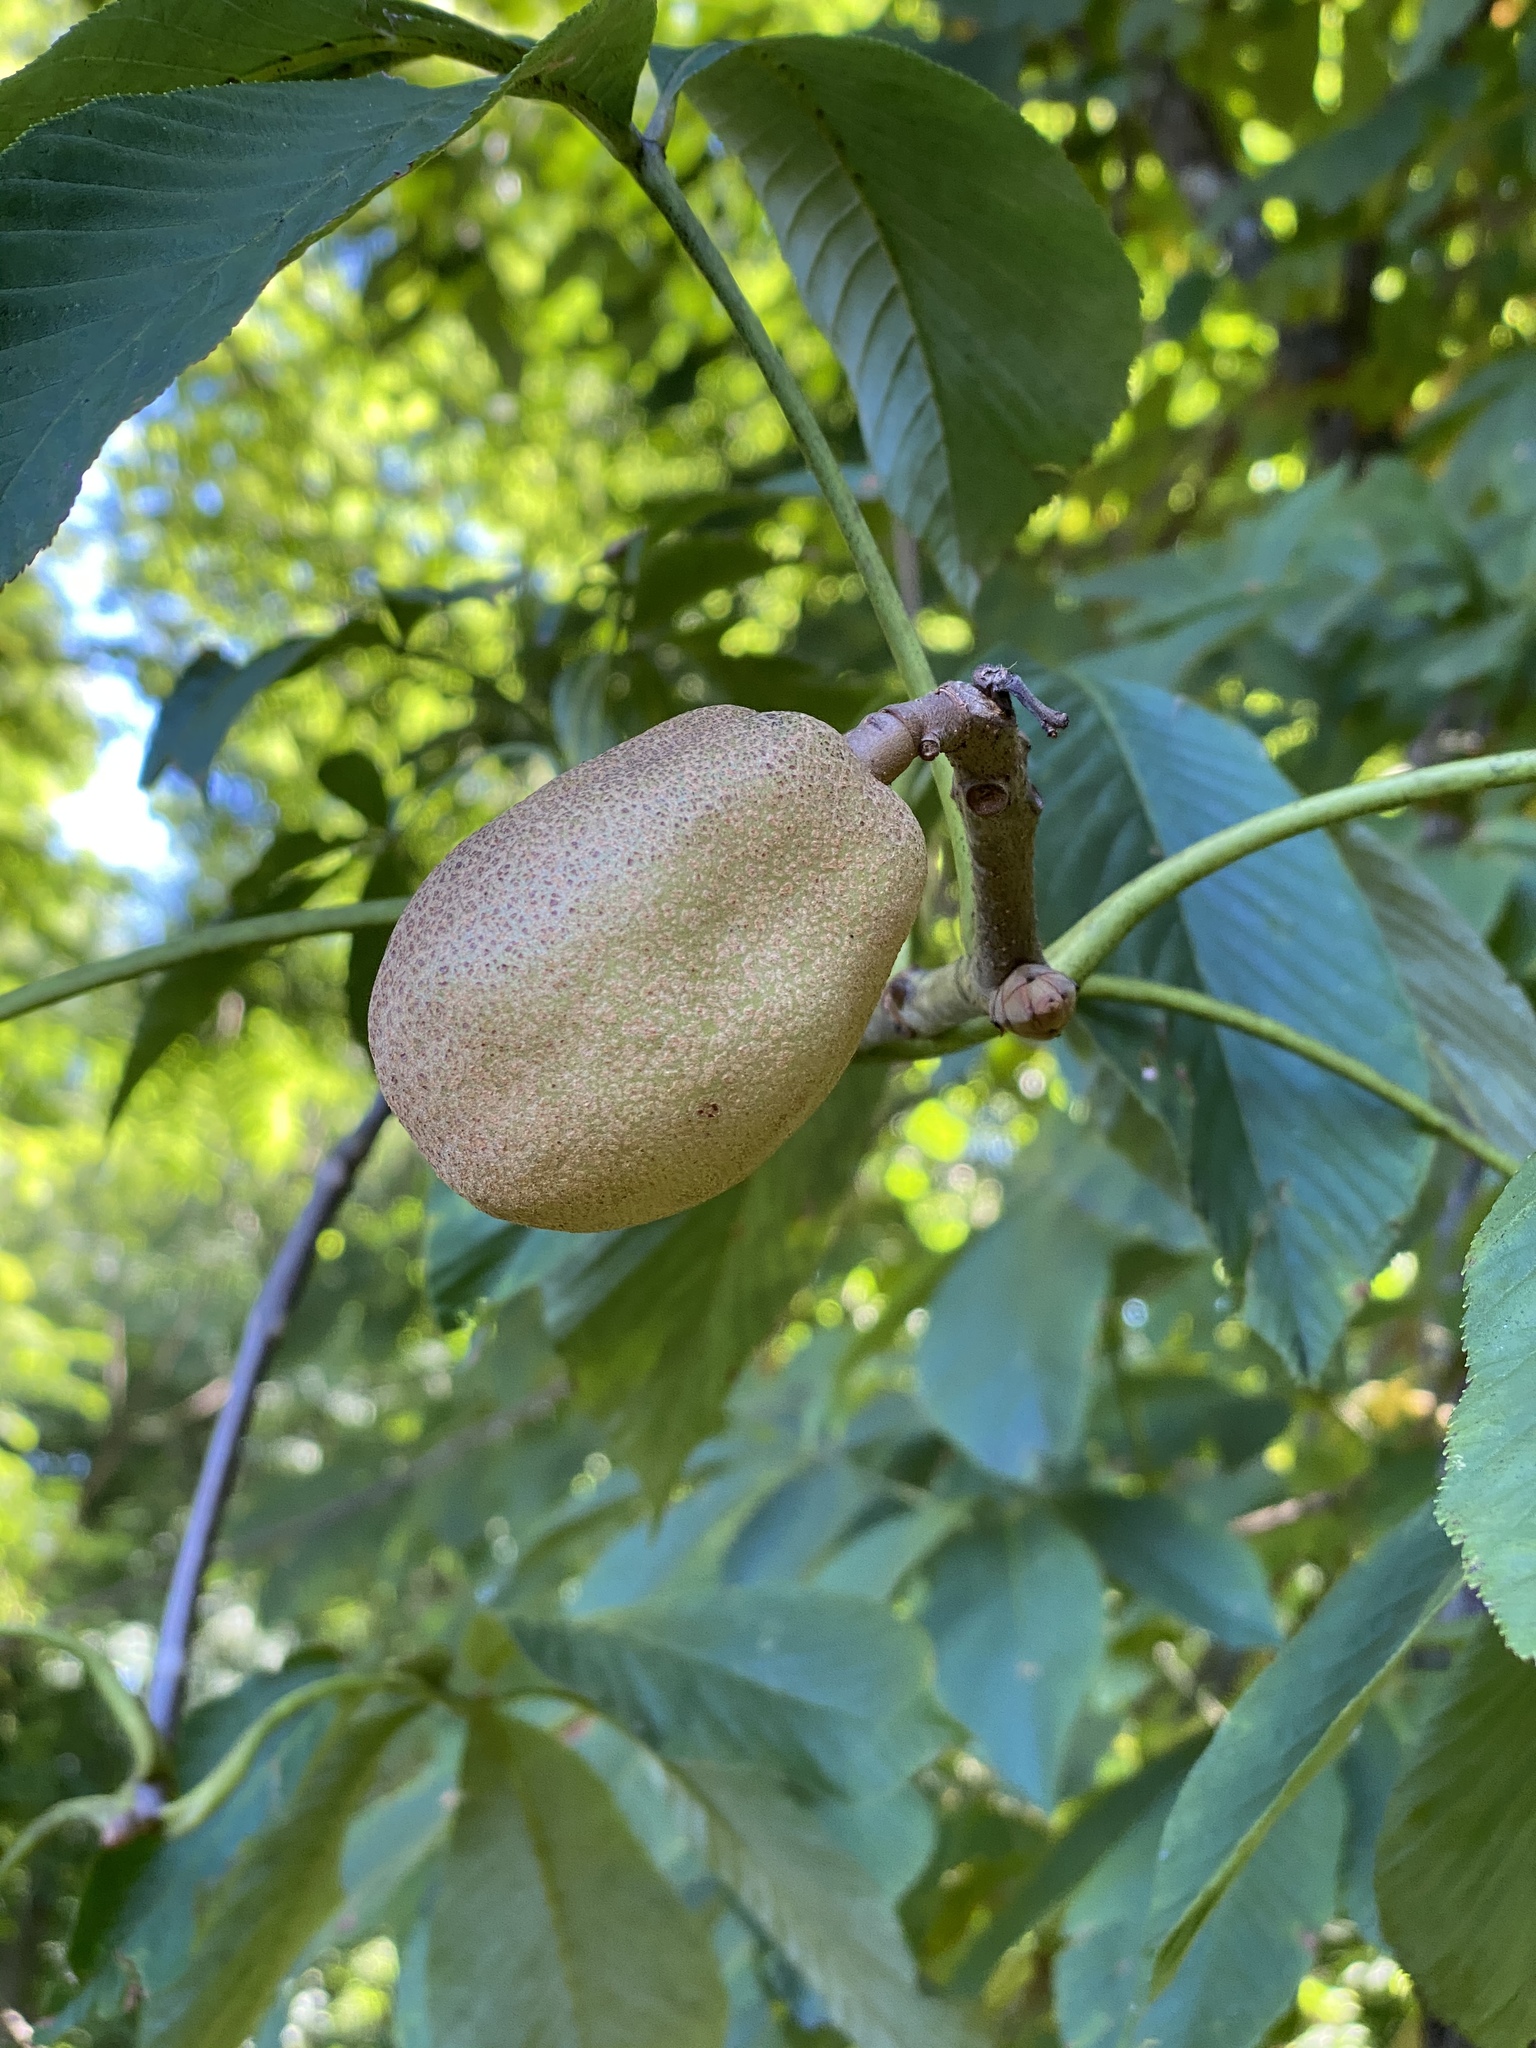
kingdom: Plantae
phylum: Tracheophyta
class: Magnoliopsida
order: Sapindales
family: Sapindaceae
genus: Aesculus
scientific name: Aesculus flava
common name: Yellow buckeye
